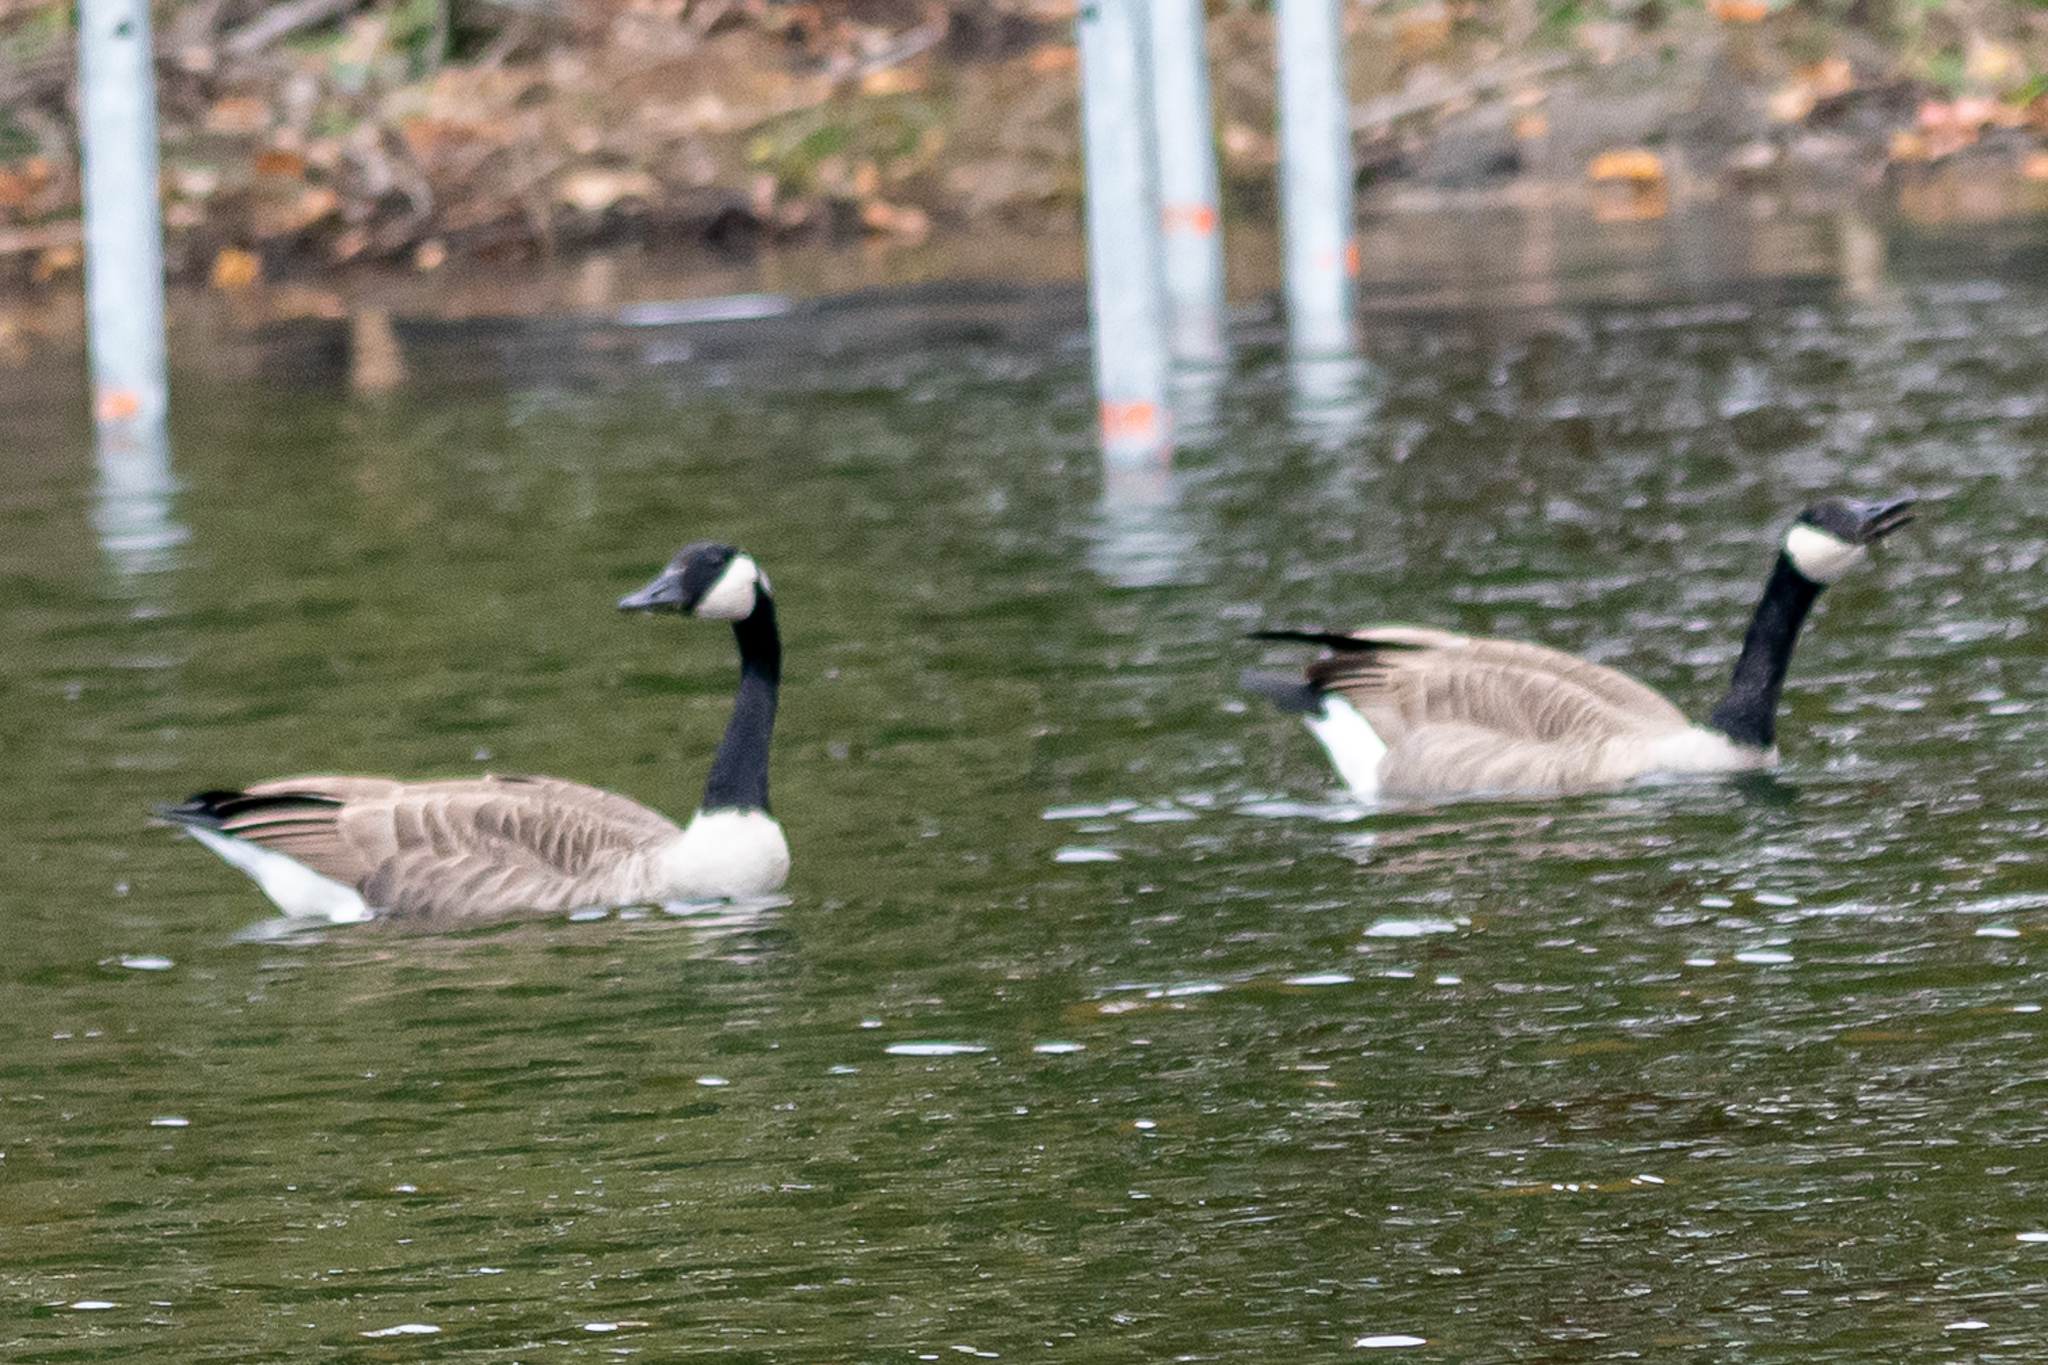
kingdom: Animalia
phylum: Chordata
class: Aves
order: Anseriformes
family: Anatidae
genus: Branta
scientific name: Branta canadensis
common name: Canada goose
